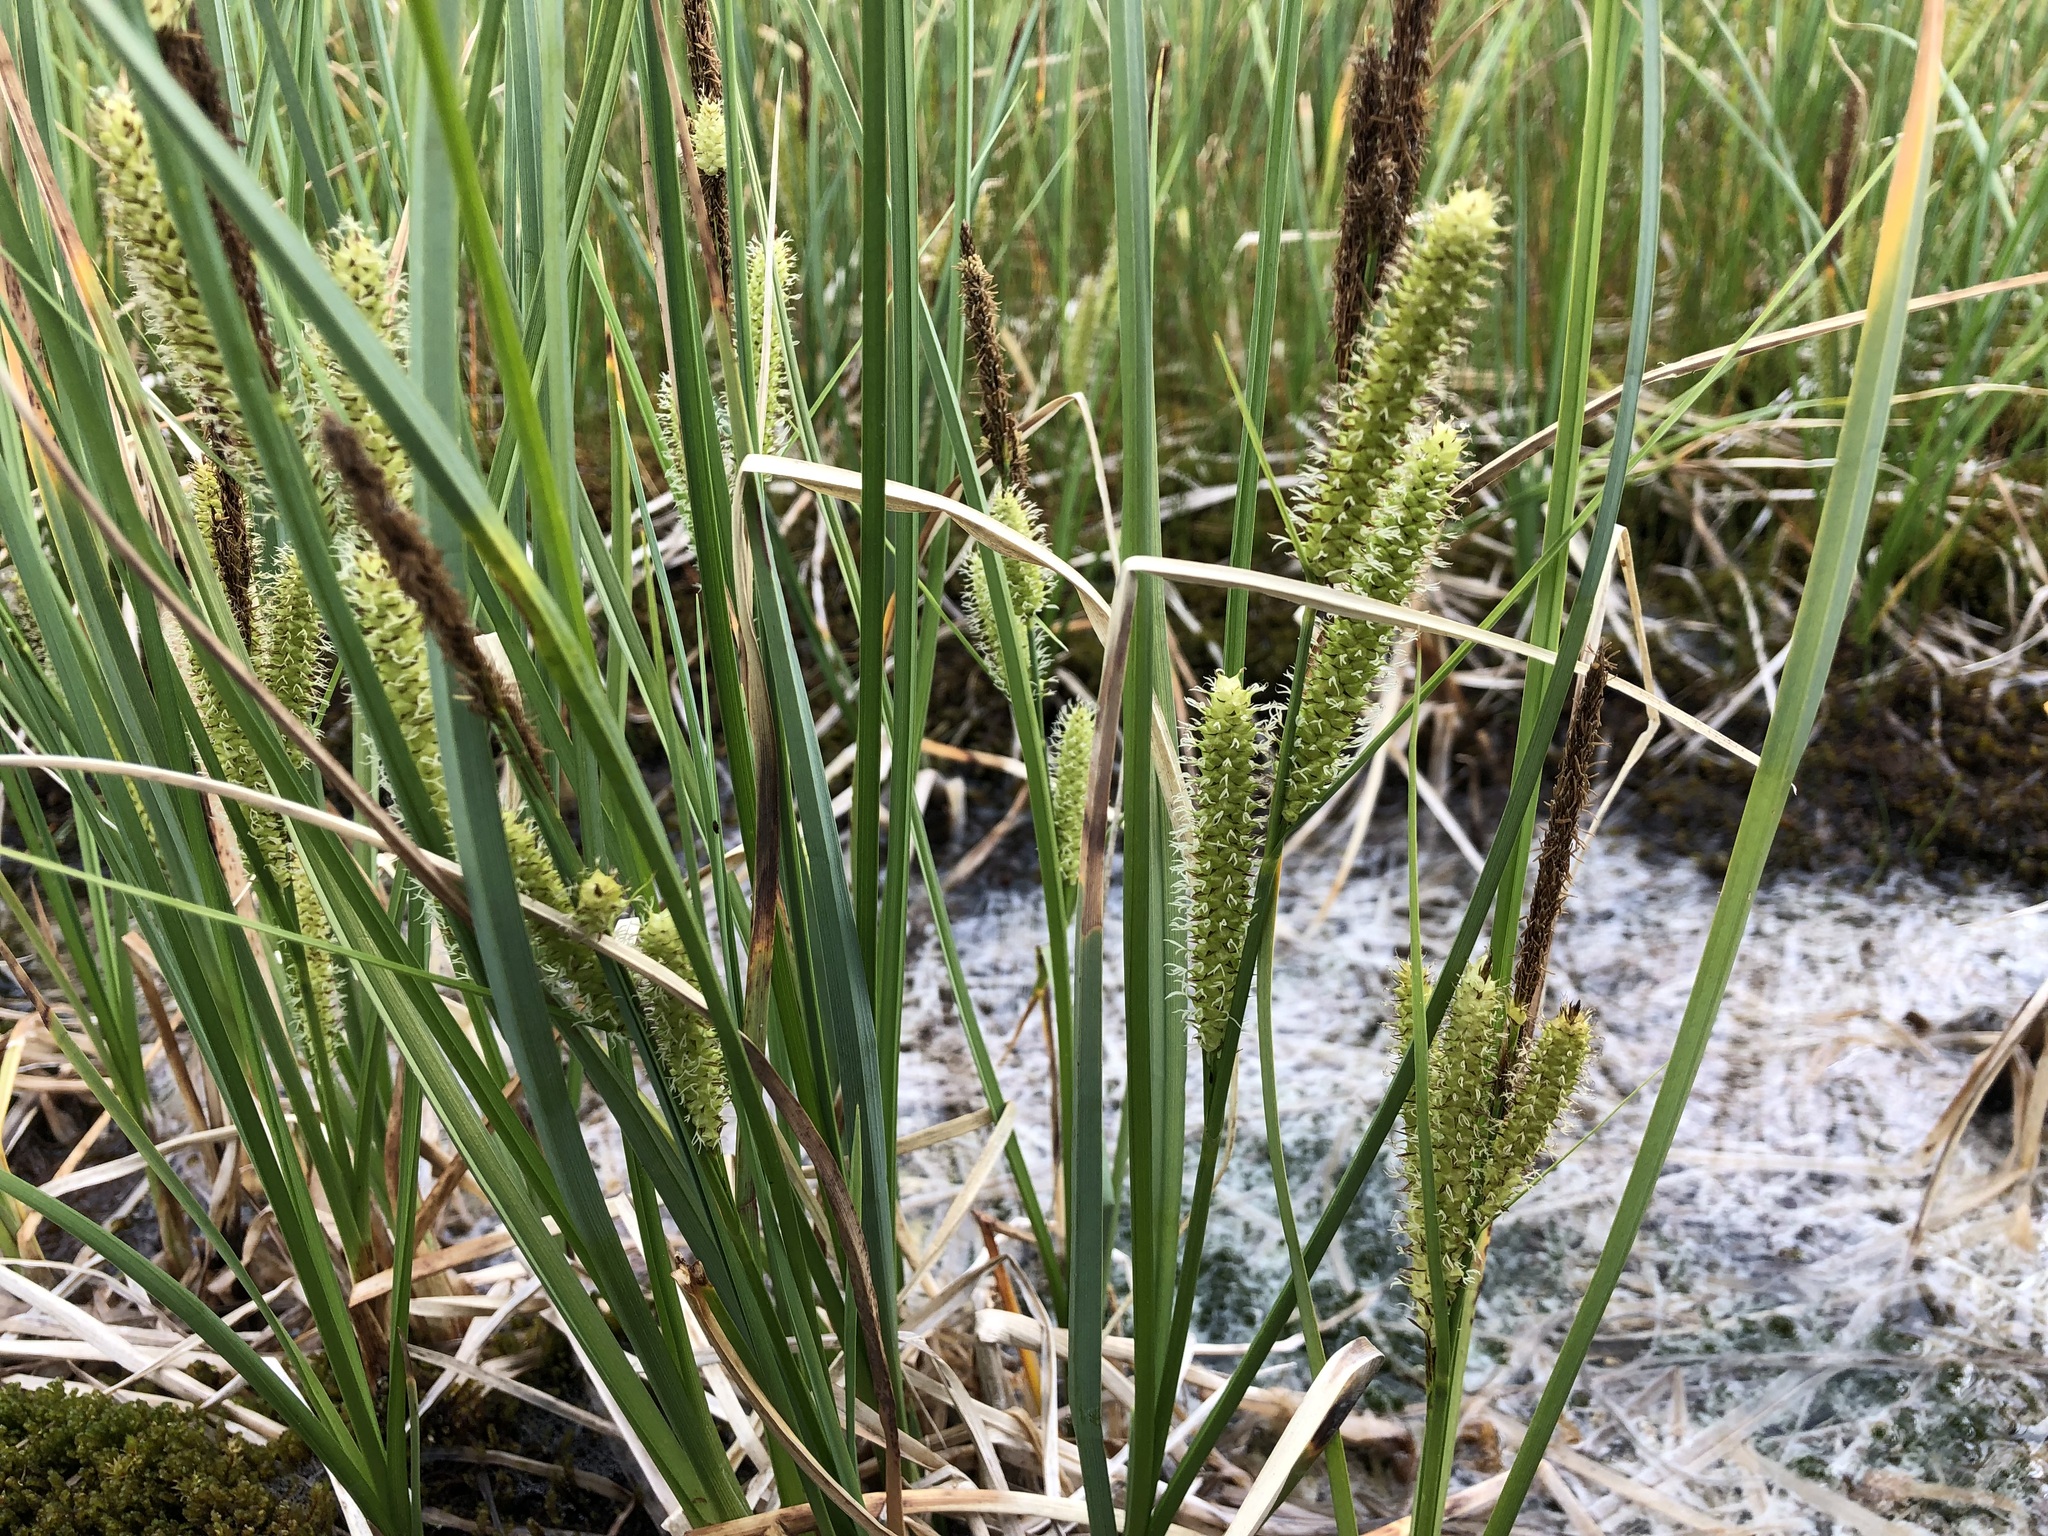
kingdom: Plantae
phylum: Tracheophyta
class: Liliopsida
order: Poales
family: Cyperaceae
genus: Carex
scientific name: Carex rostrata
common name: Bottle sedge
